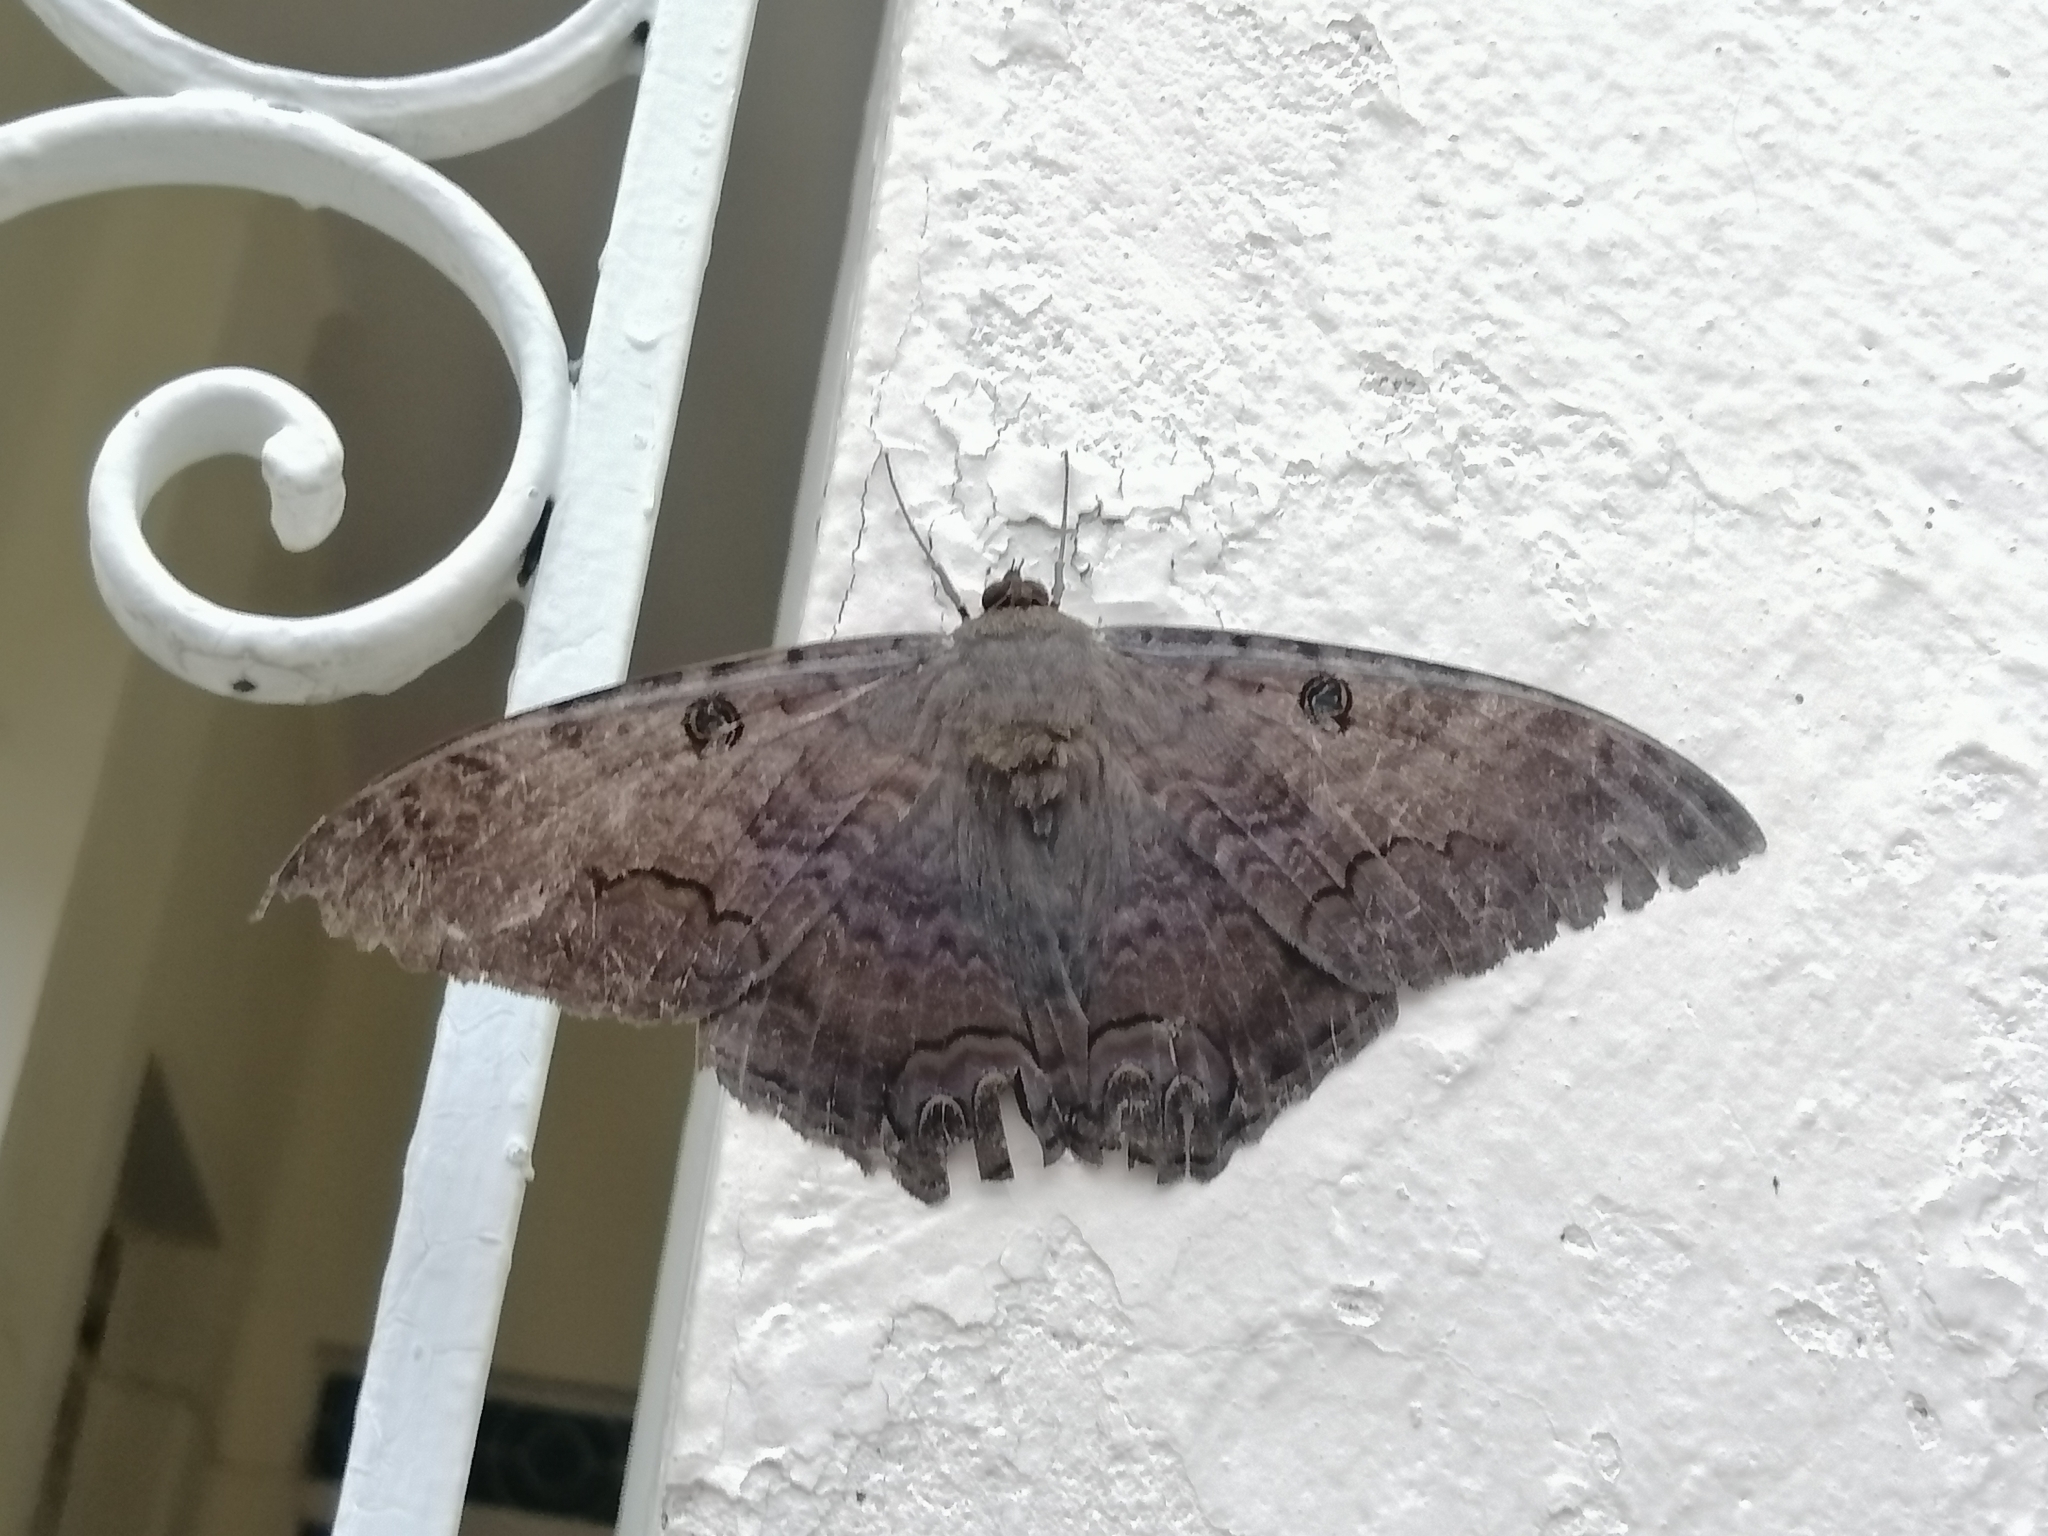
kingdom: Animalia
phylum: Arthropoda
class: Insecta
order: Lepidoptera
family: Erebidae
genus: Ascalapha
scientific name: Ascalapha odorata
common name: Black witch
